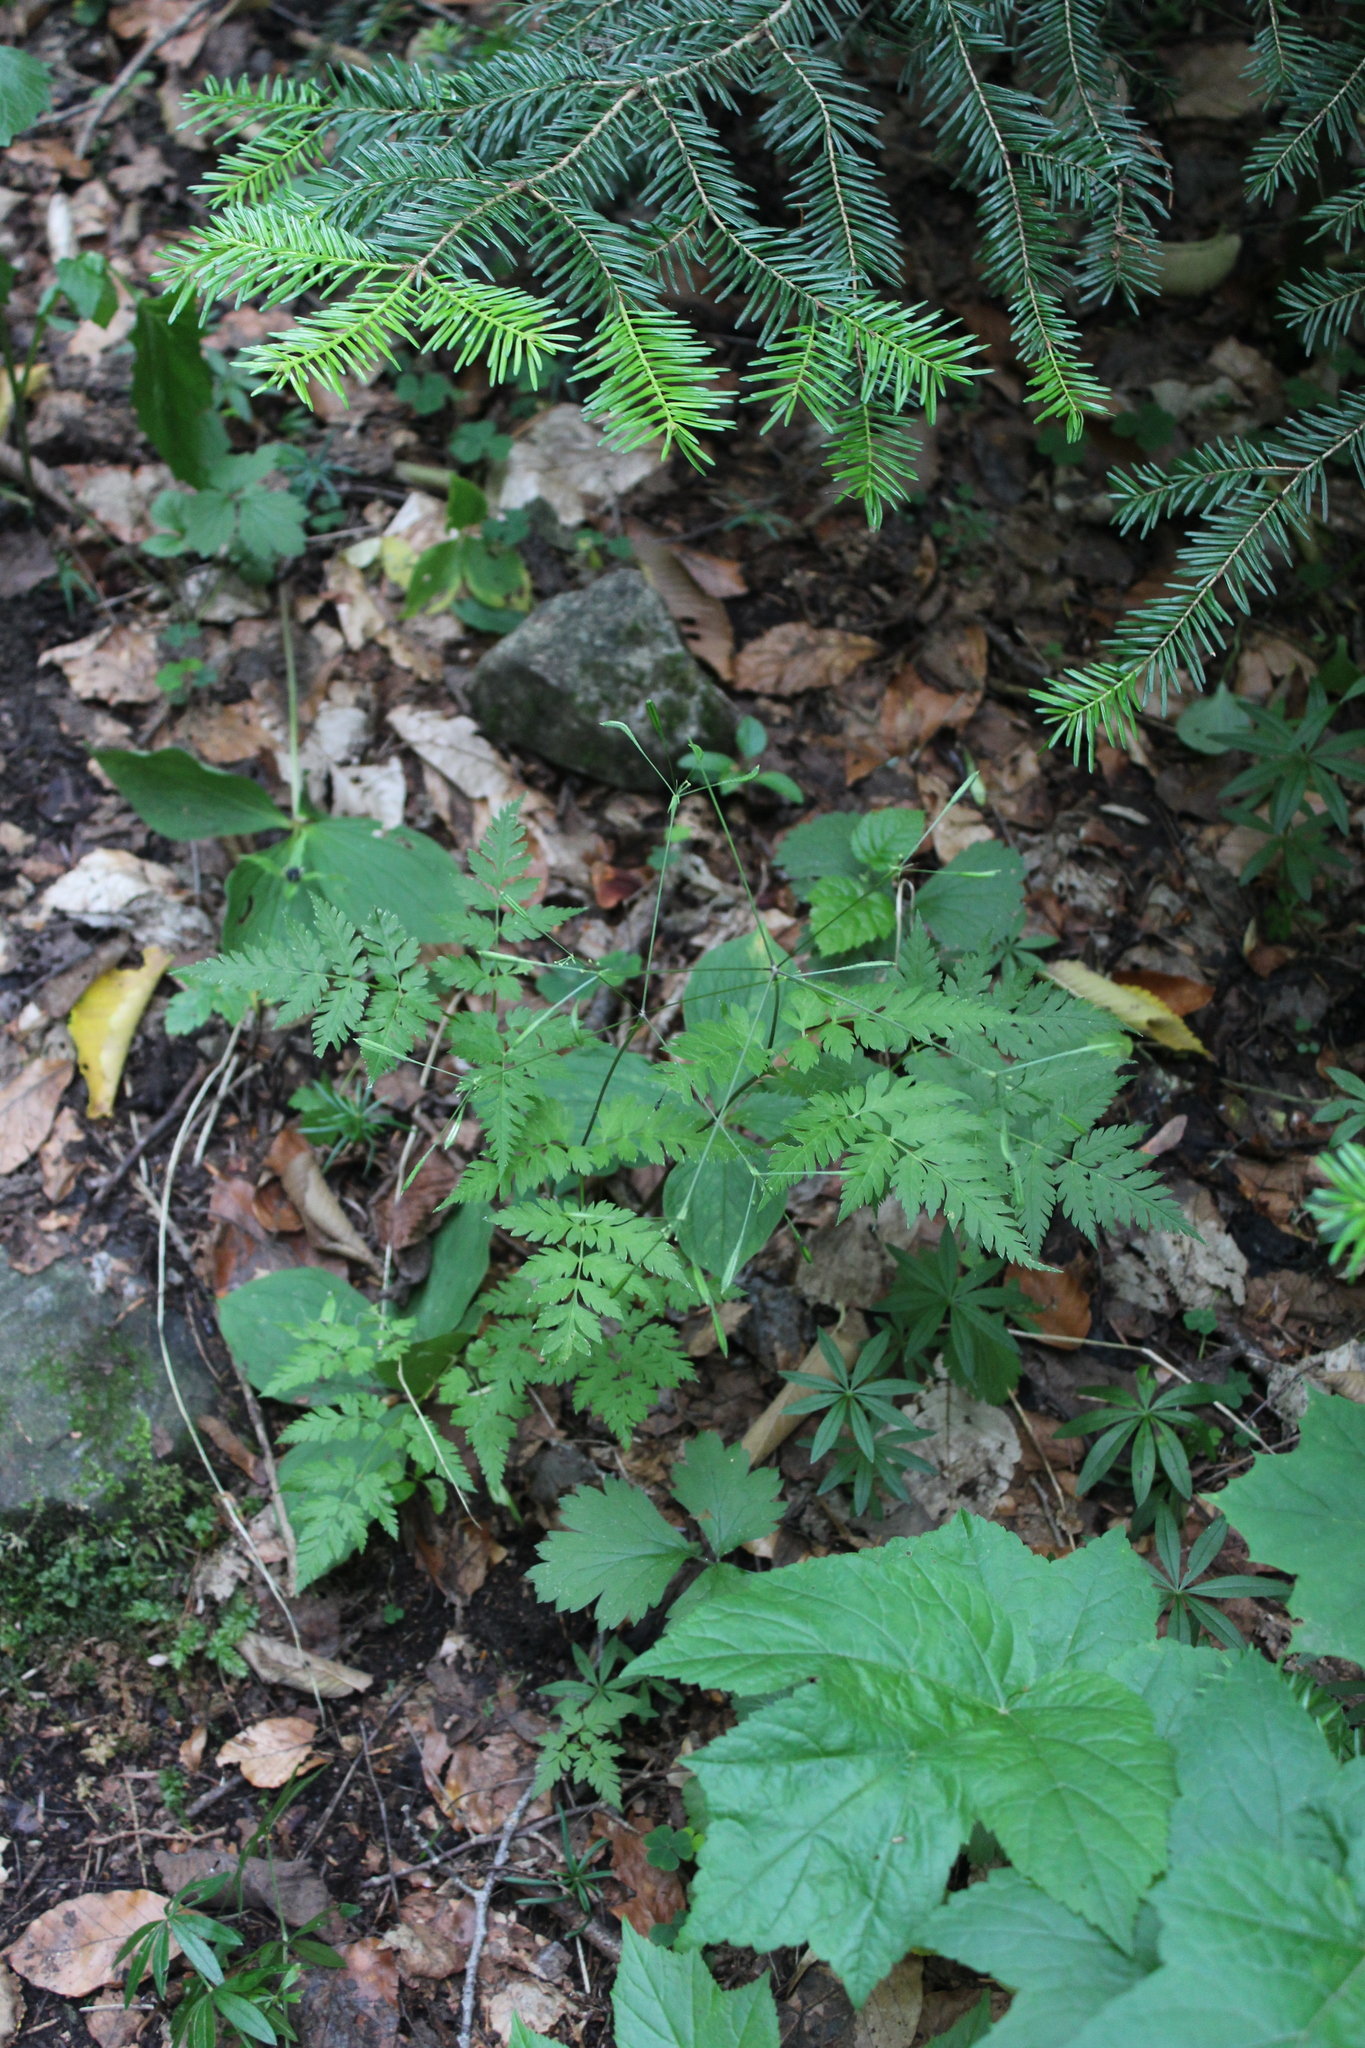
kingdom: Plantae
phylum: Tracheophyta
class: Magnoliopsida
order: Apiales
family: Apiaceae
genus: Osmorhiza
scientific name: Osmorhiza aristata
